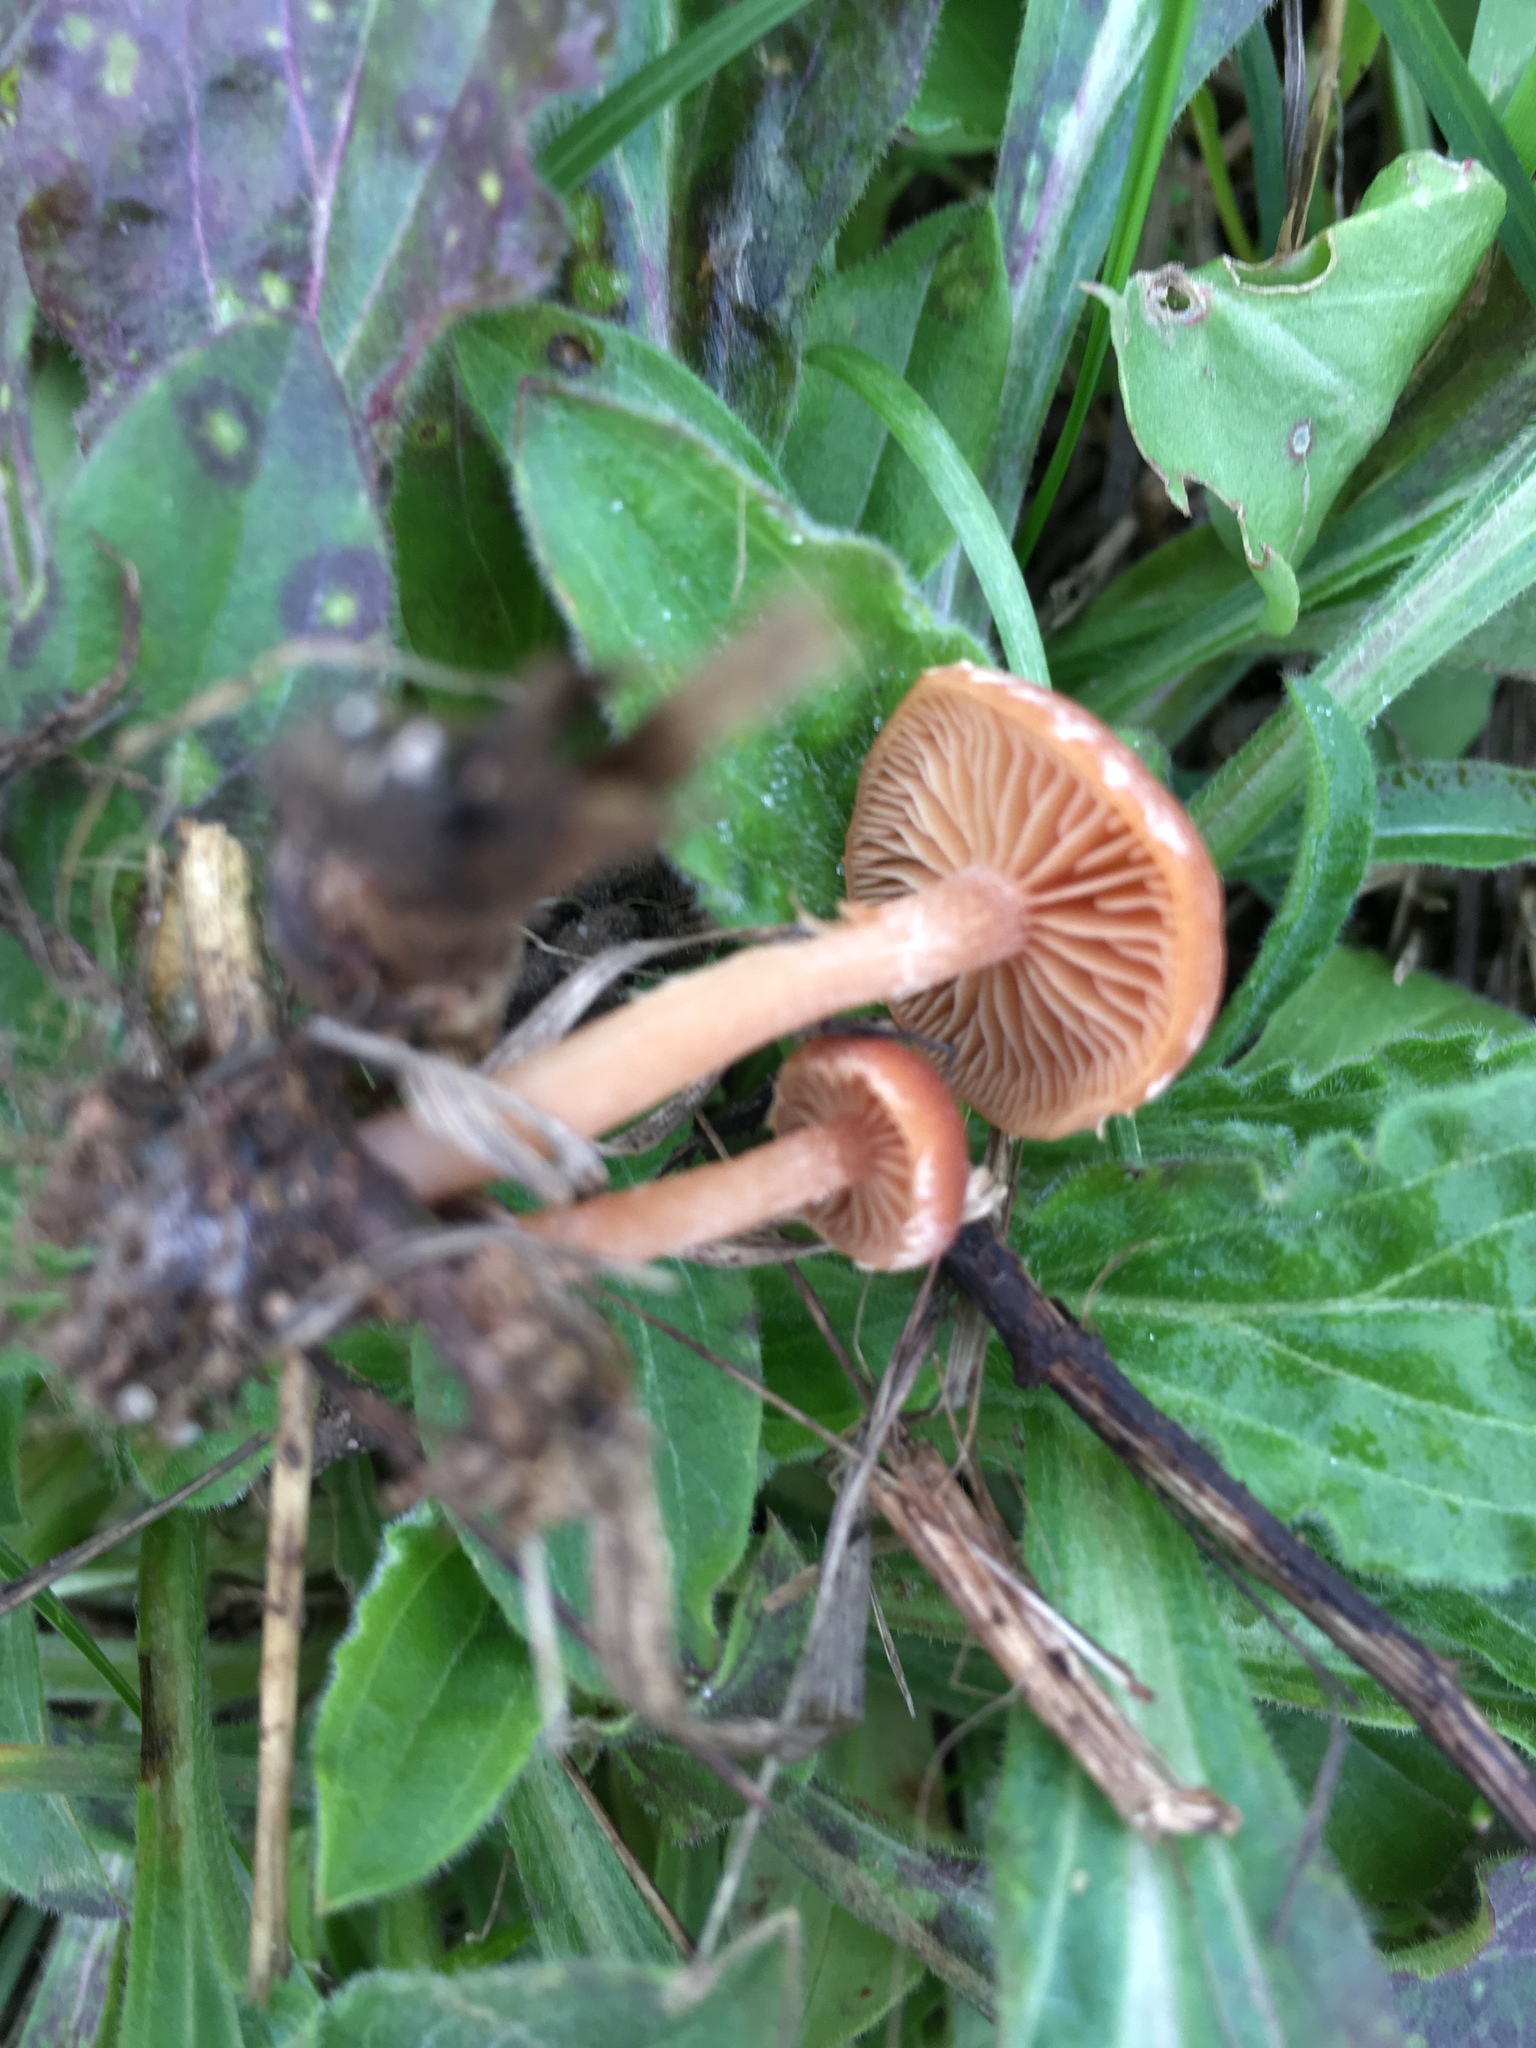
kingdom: Fungi
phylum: Basidiomycota
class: Agaricomycetes
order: Agaricales
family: Tubariaceae
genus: Tubaria
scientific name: Tubaria furfuracea
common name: Scurfy twiglet
